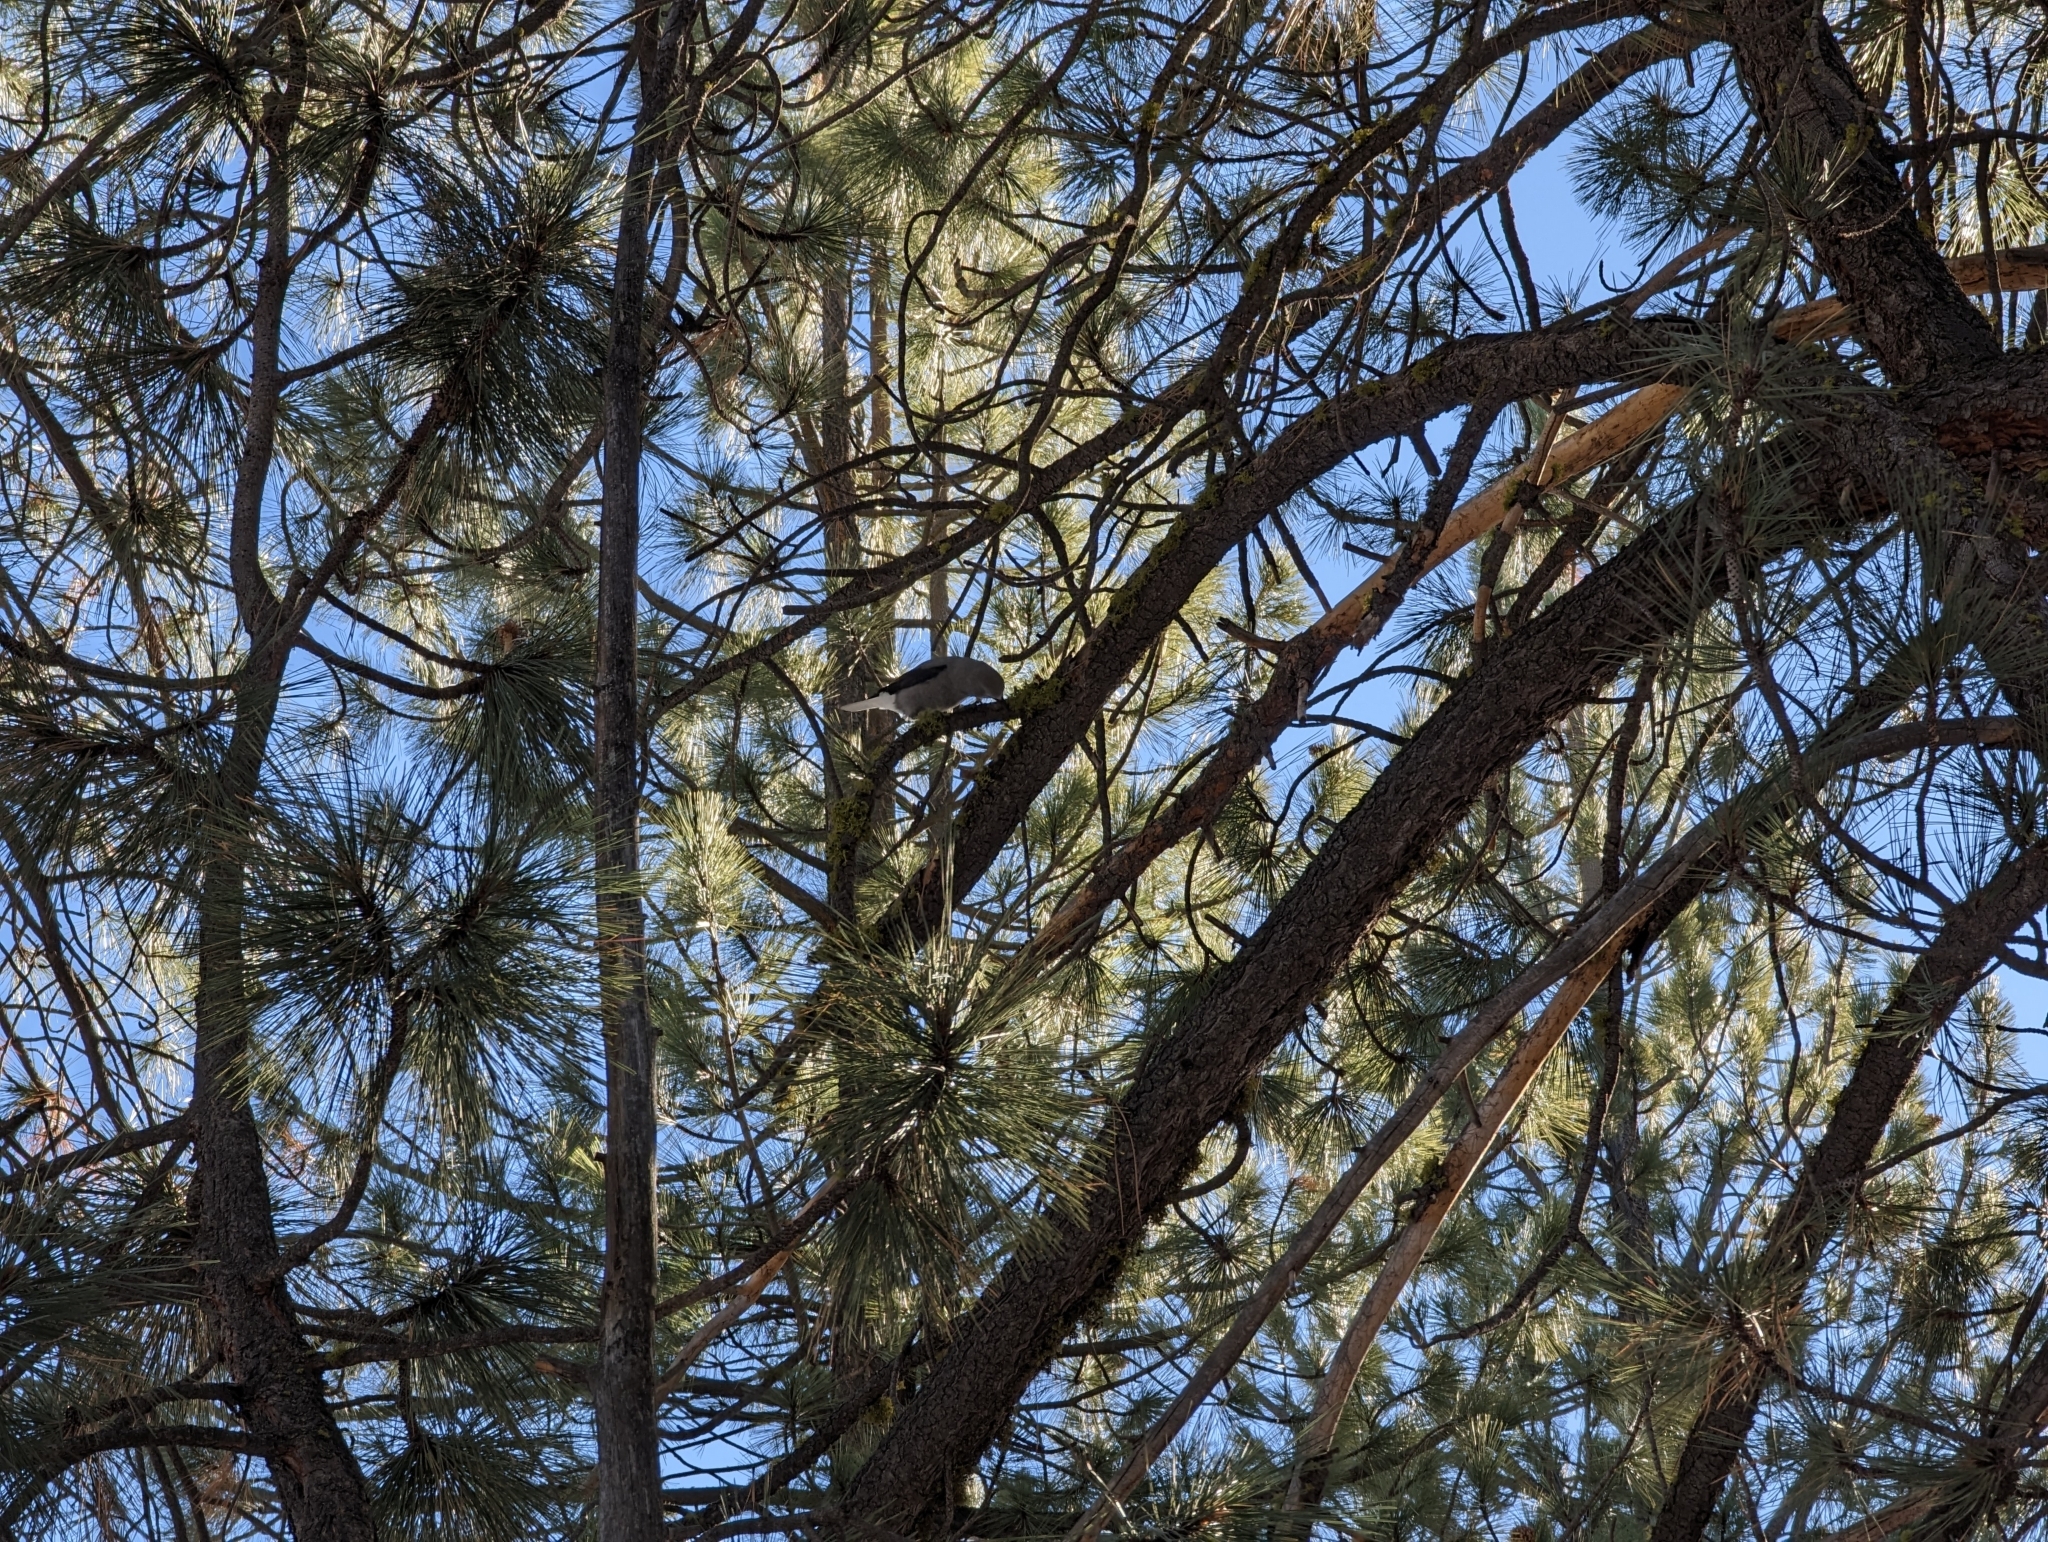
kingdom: Animalia
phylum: Chordata
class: Aves
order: Passeriformes
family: Corvidae
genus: Nucifraga
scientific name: Nucifraga columbiana
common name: Clark's nutcracker
